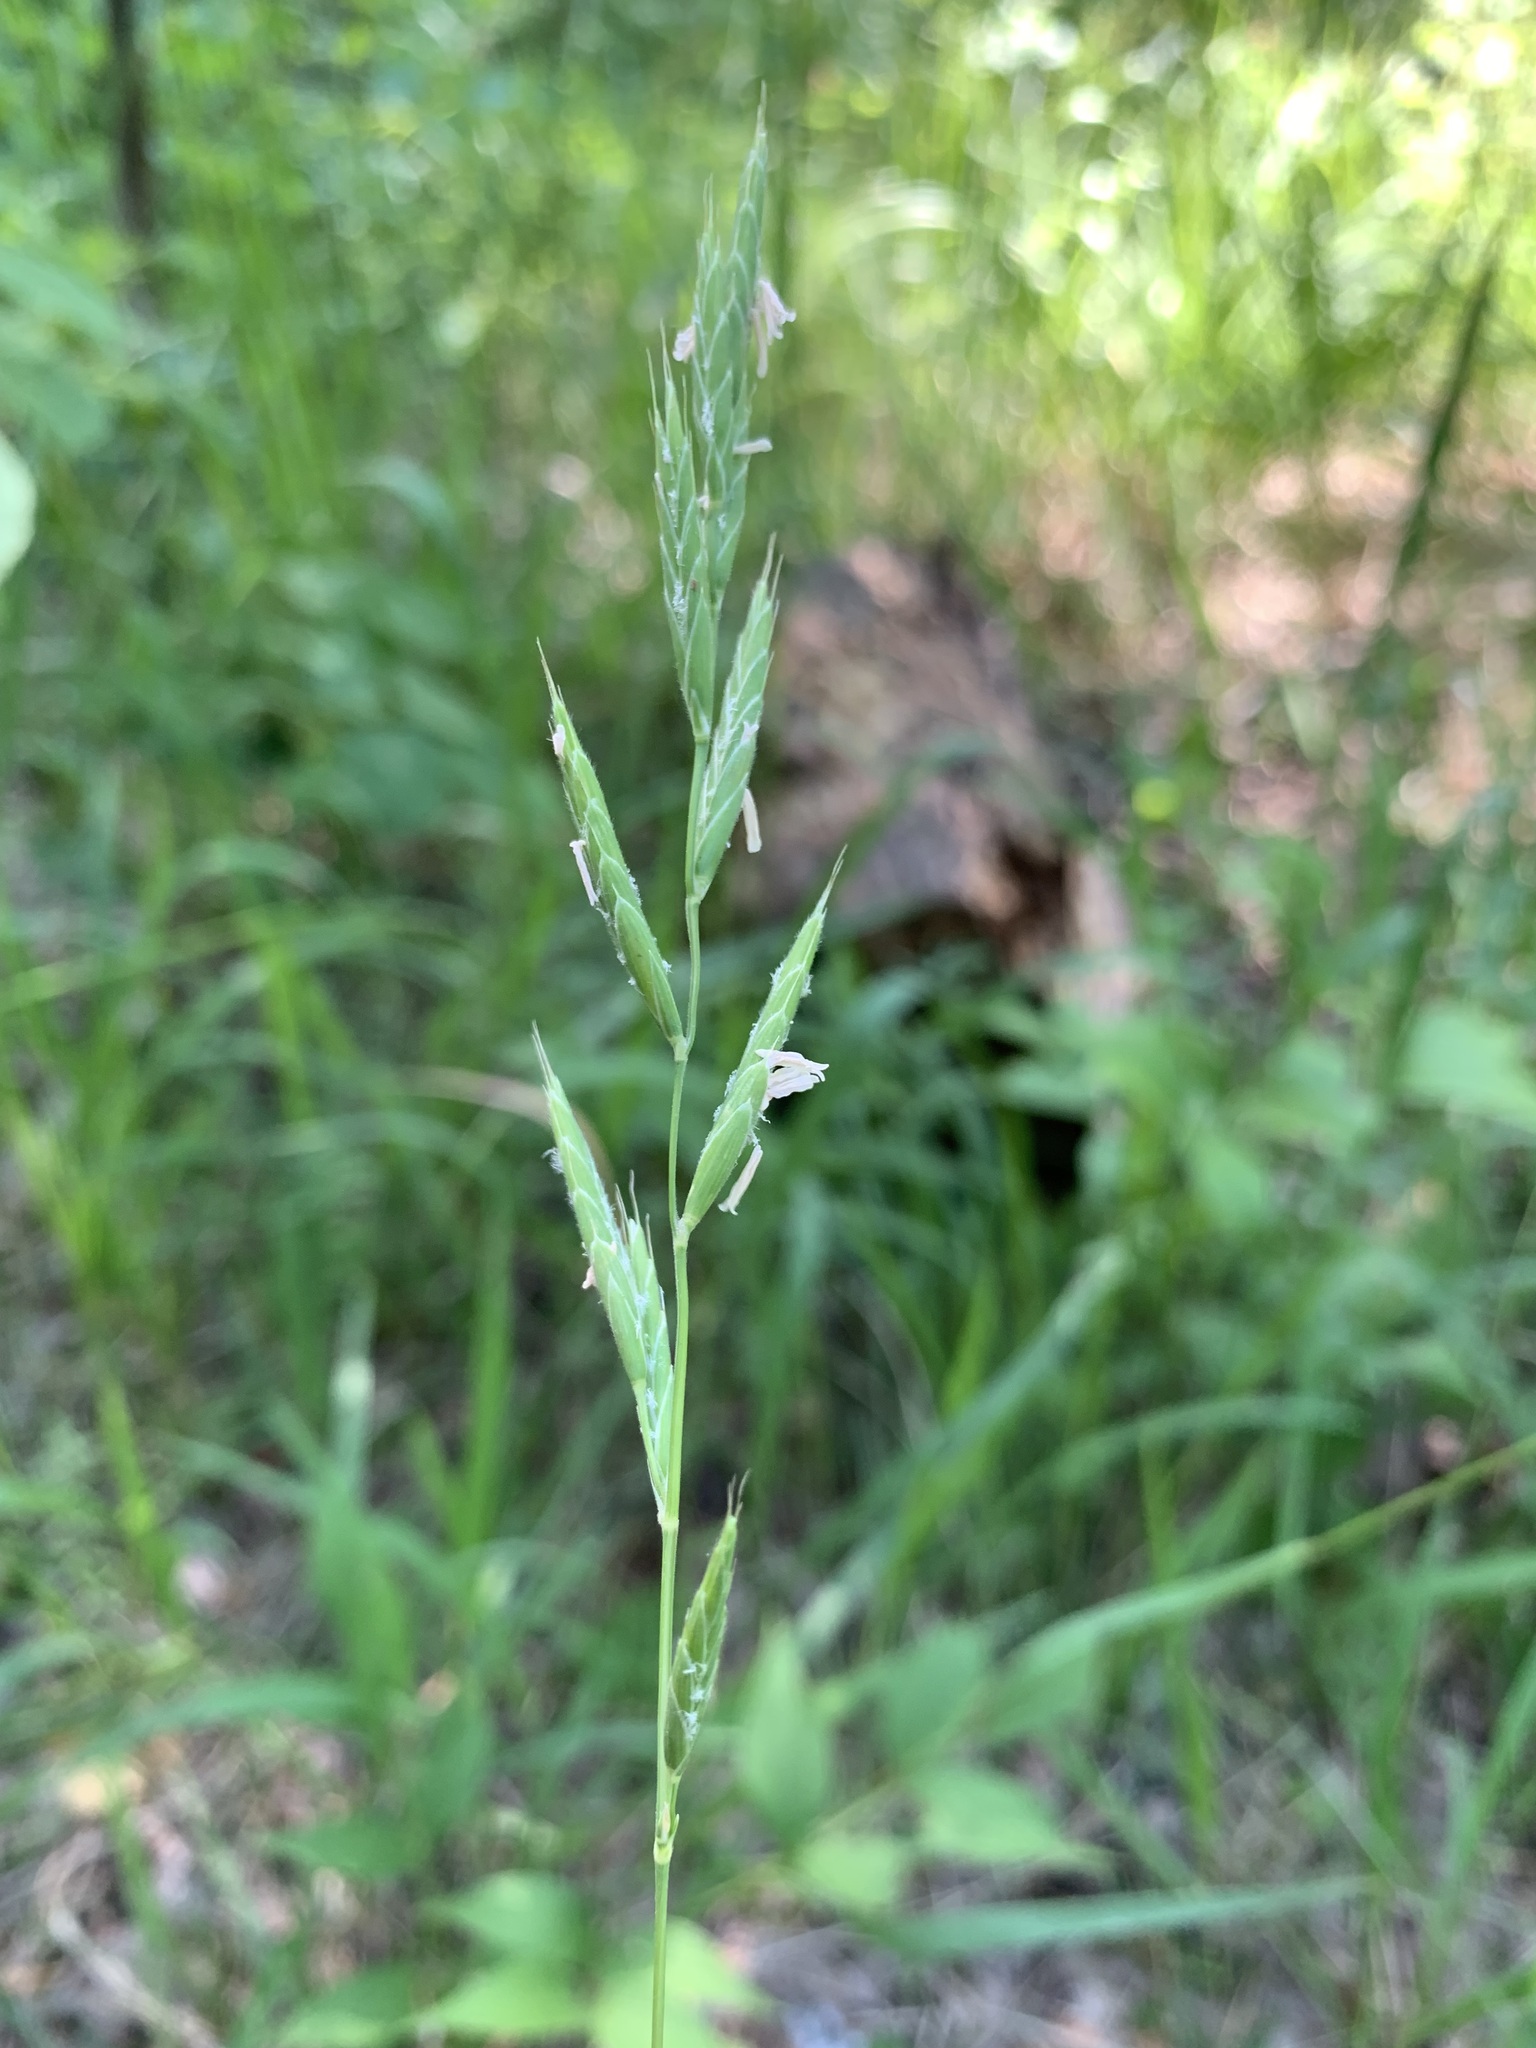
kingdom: Plantae
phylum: Tracheophyta
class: Liliopsida
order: Poales
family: Poaceae
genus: Brachypodium
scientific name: Brachypodium pinnatum
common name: Tor grass
